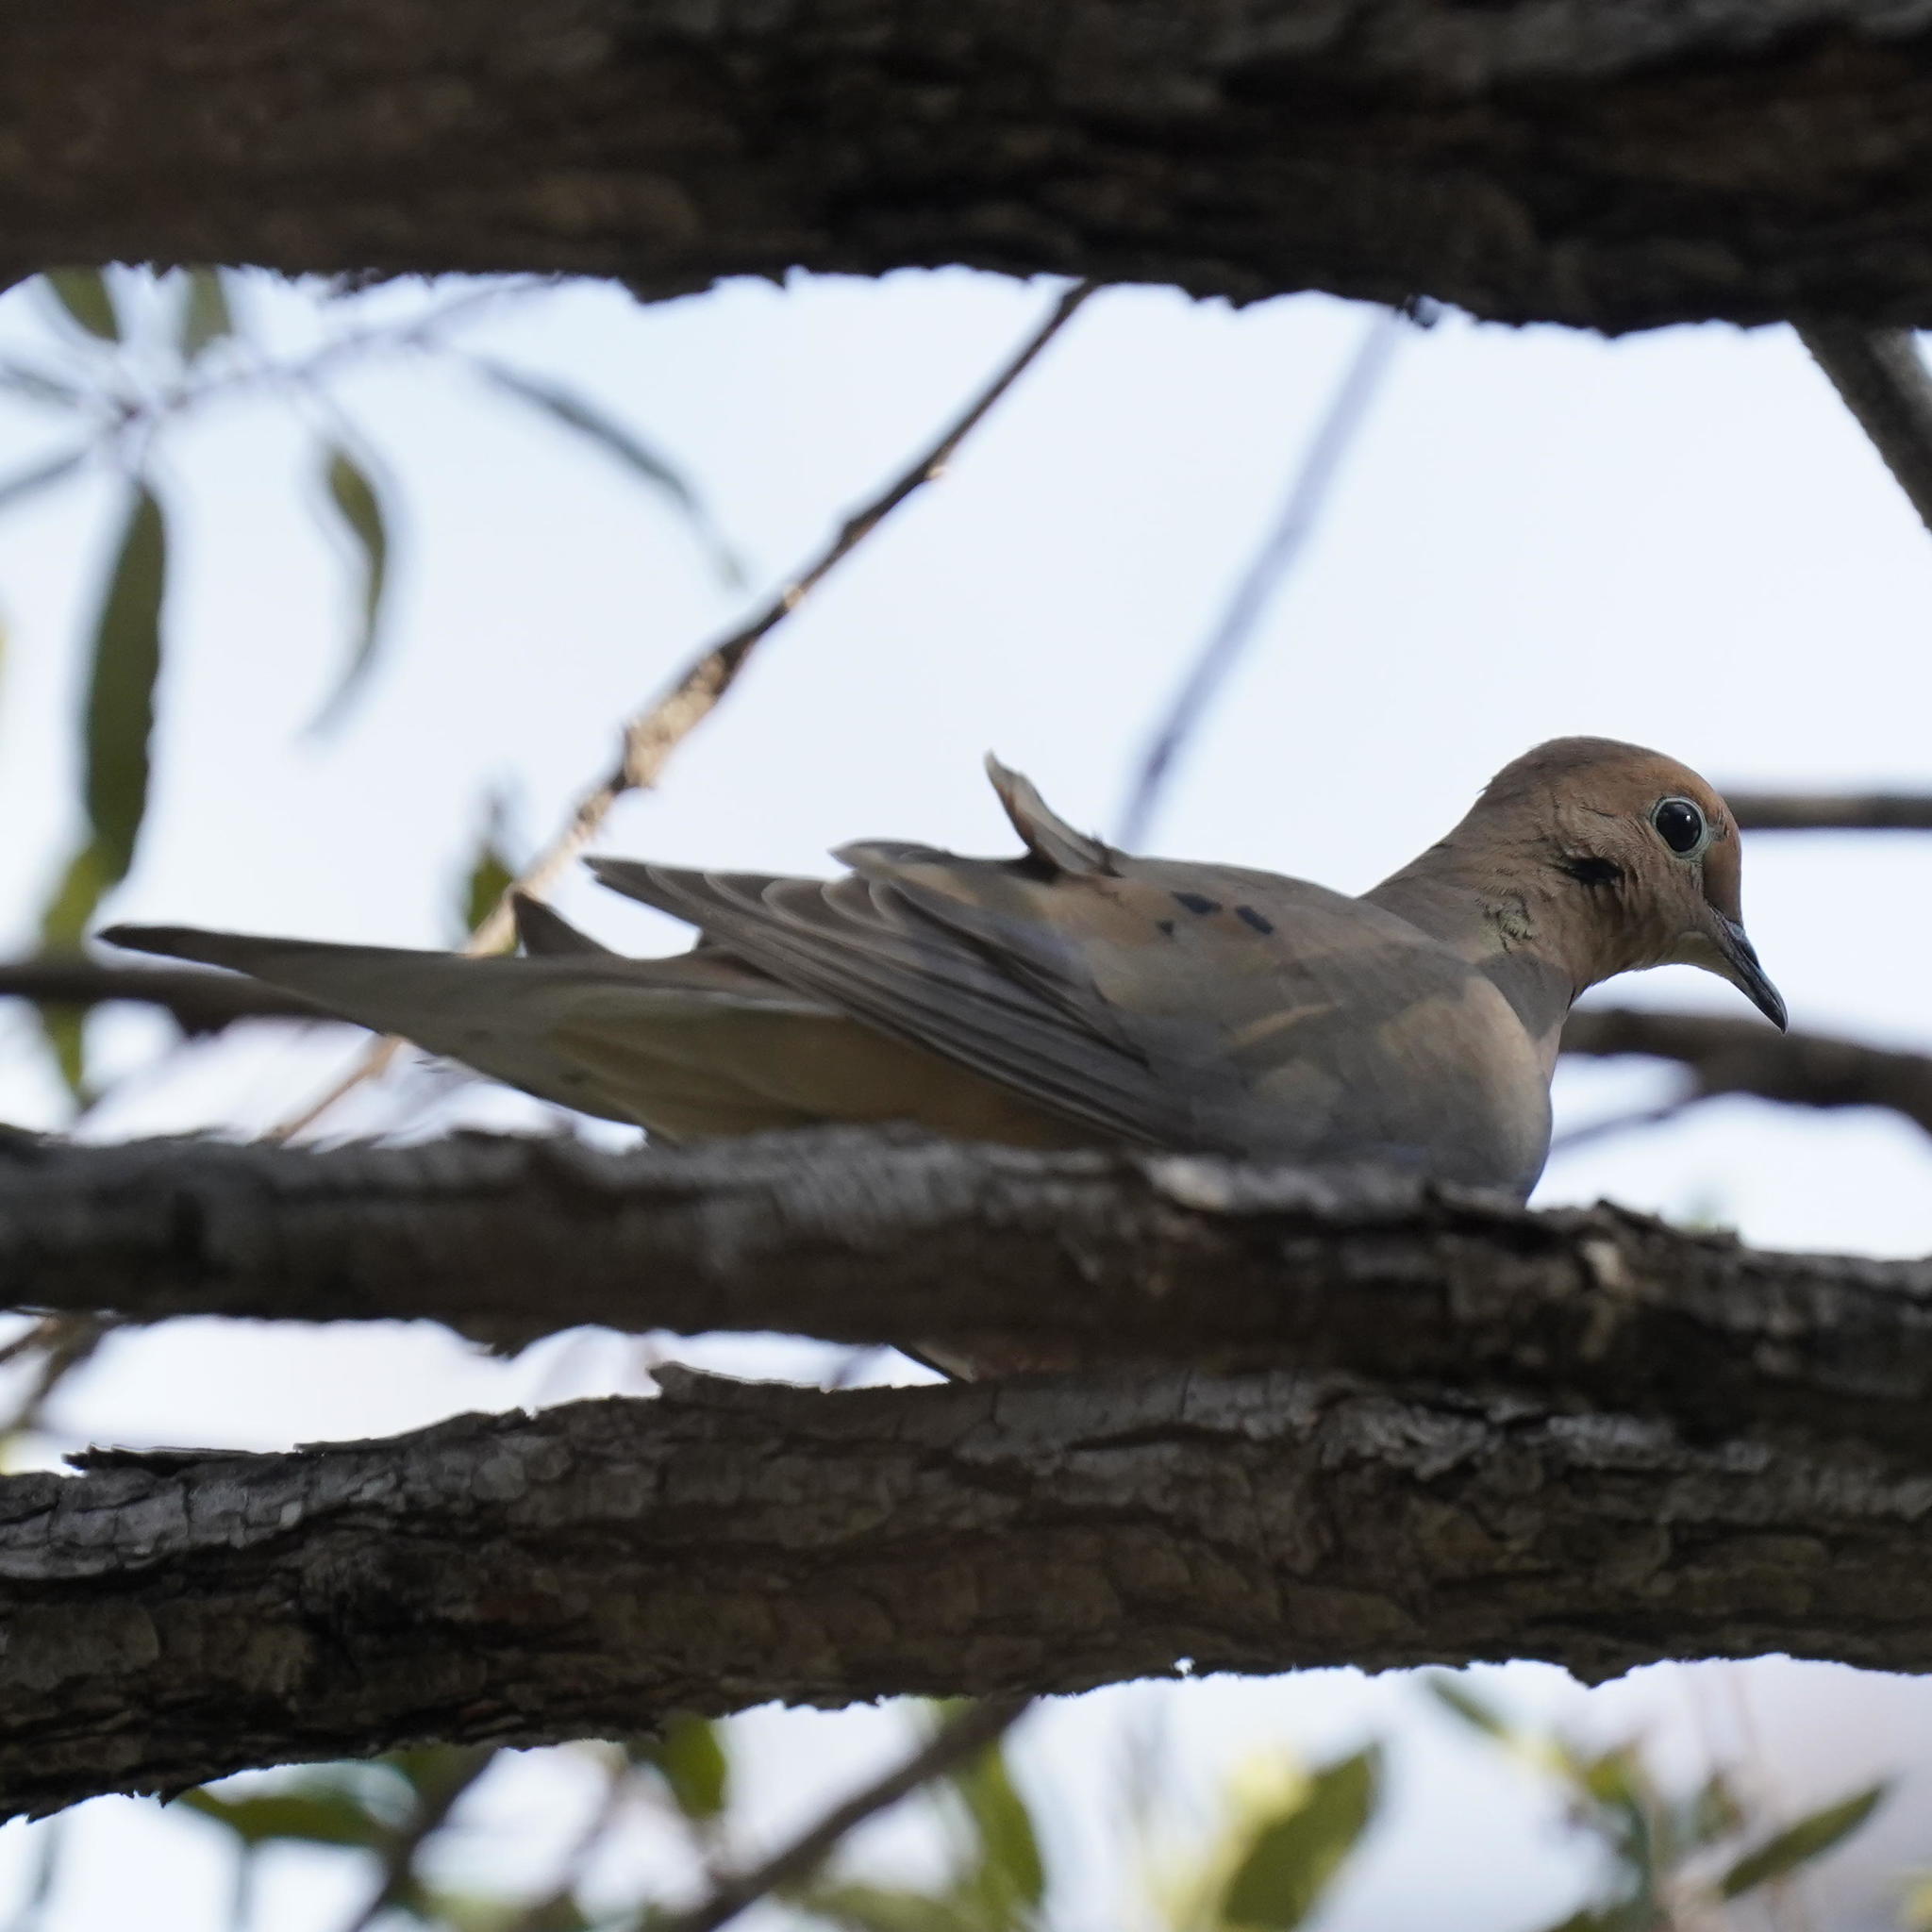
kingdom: Animalia
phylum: Chordata
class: Aves
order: Columbiformes
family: Columbidae
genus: Zenaida
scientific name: Zenaida macroura
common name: Mourning dove
